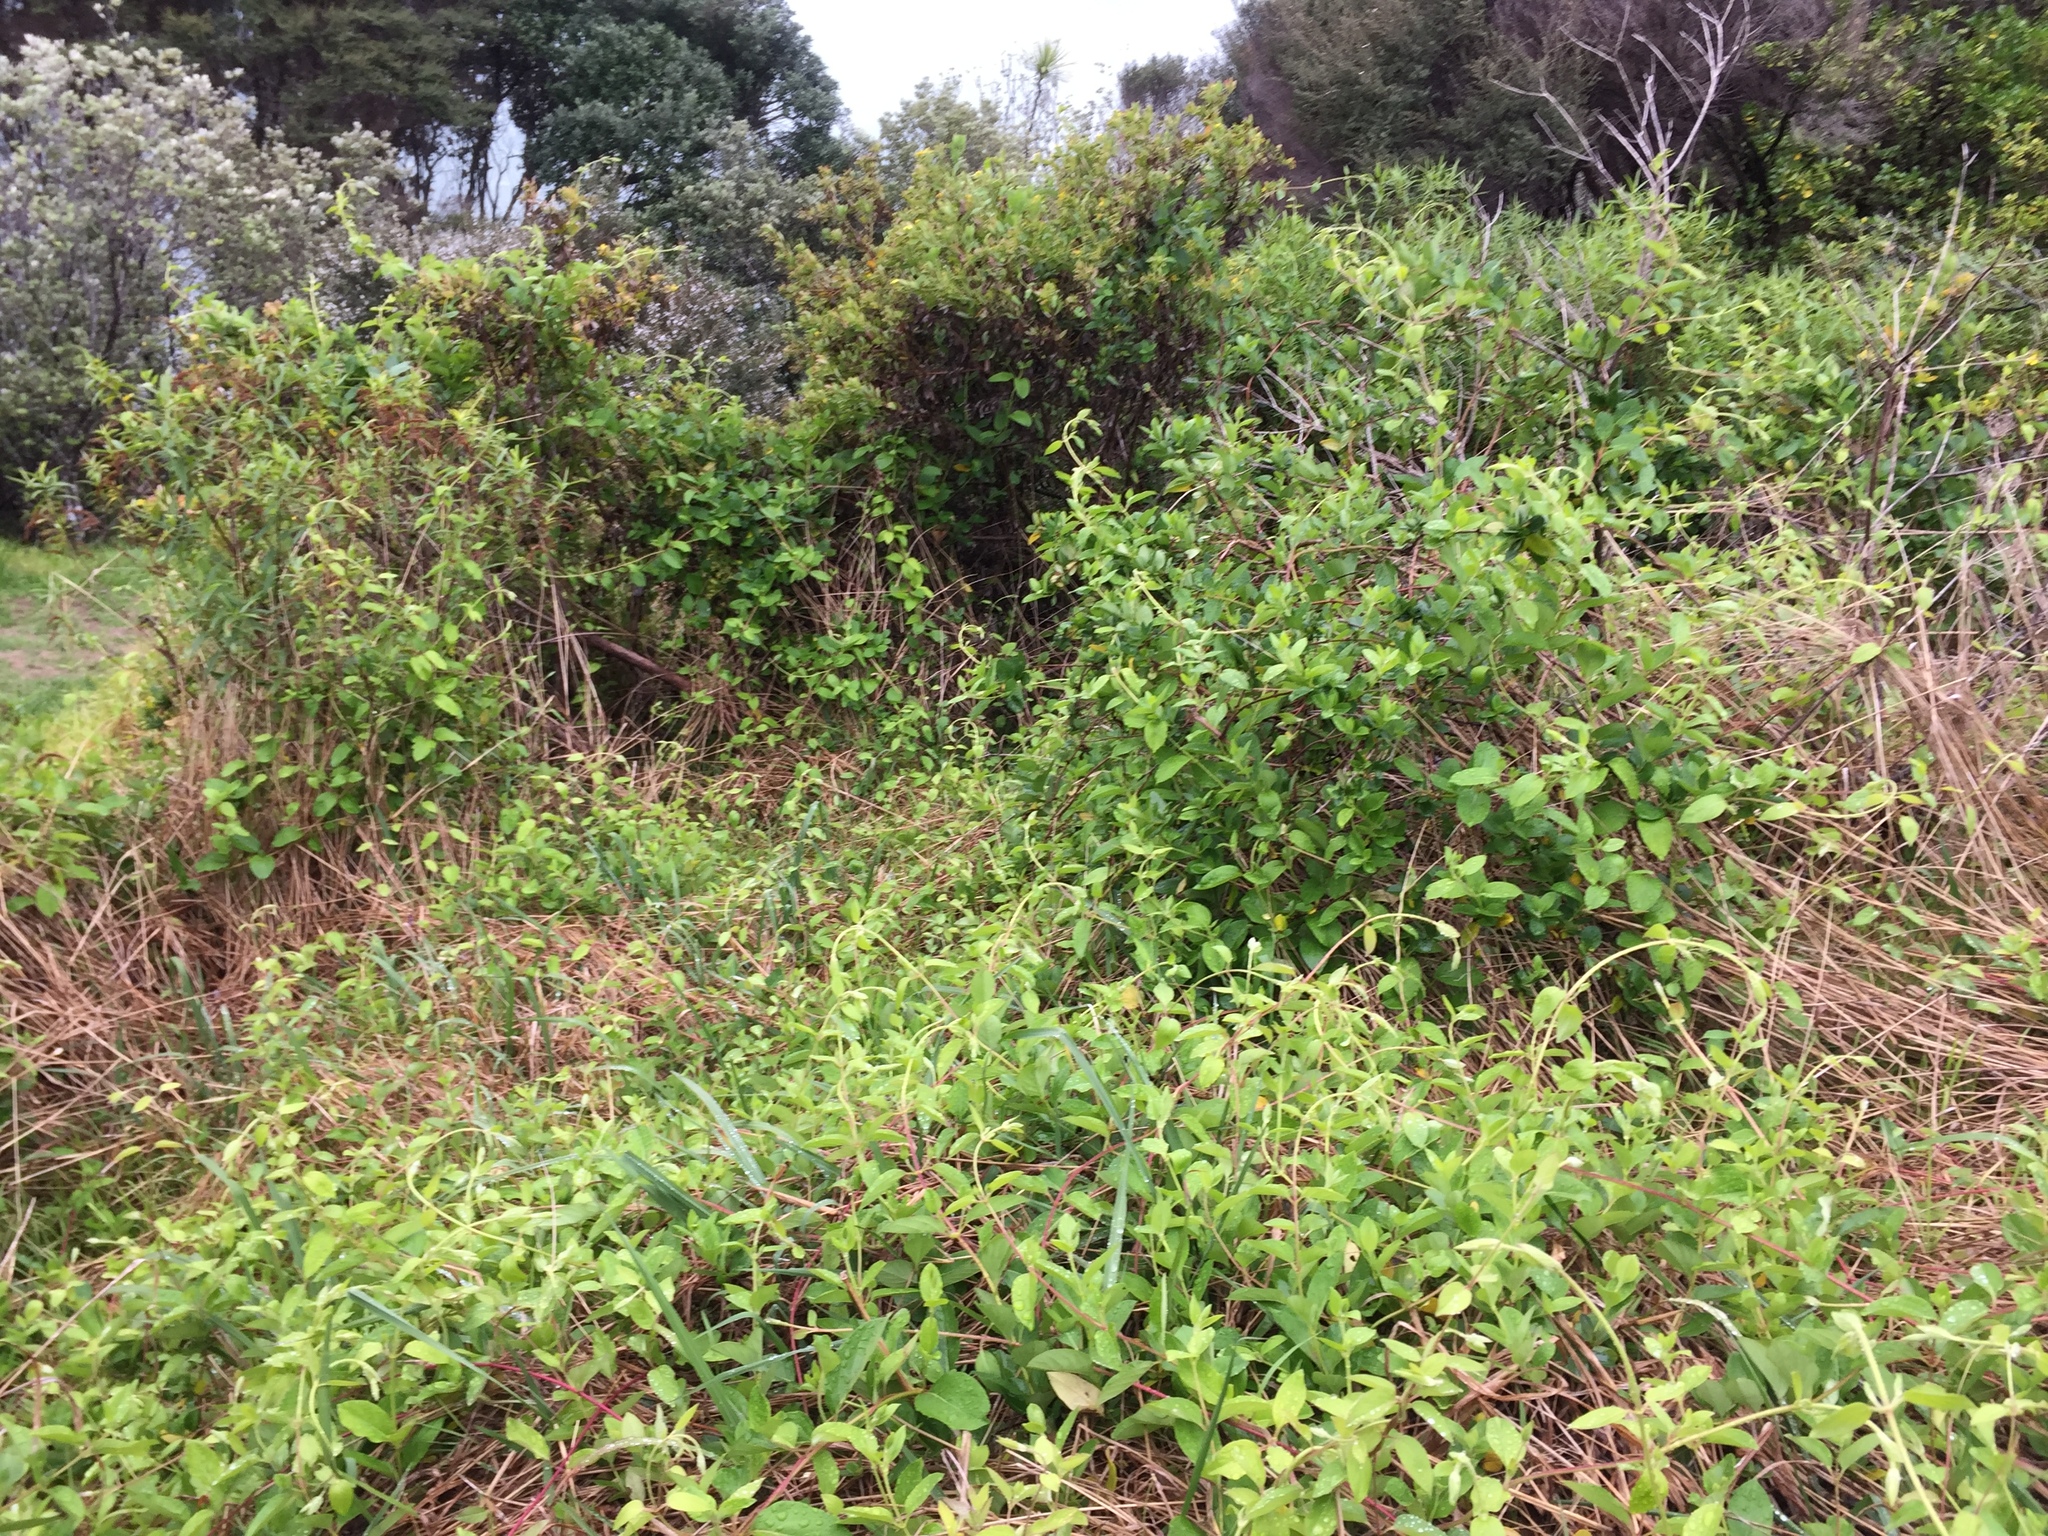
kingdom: Plantae
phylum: Tracheophyta
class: Magnoliopsida
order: Dipsacales
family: Caprifoliaceae
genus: Lonicera
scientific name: Lonicera japonica
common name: Japanese honeysuckle
